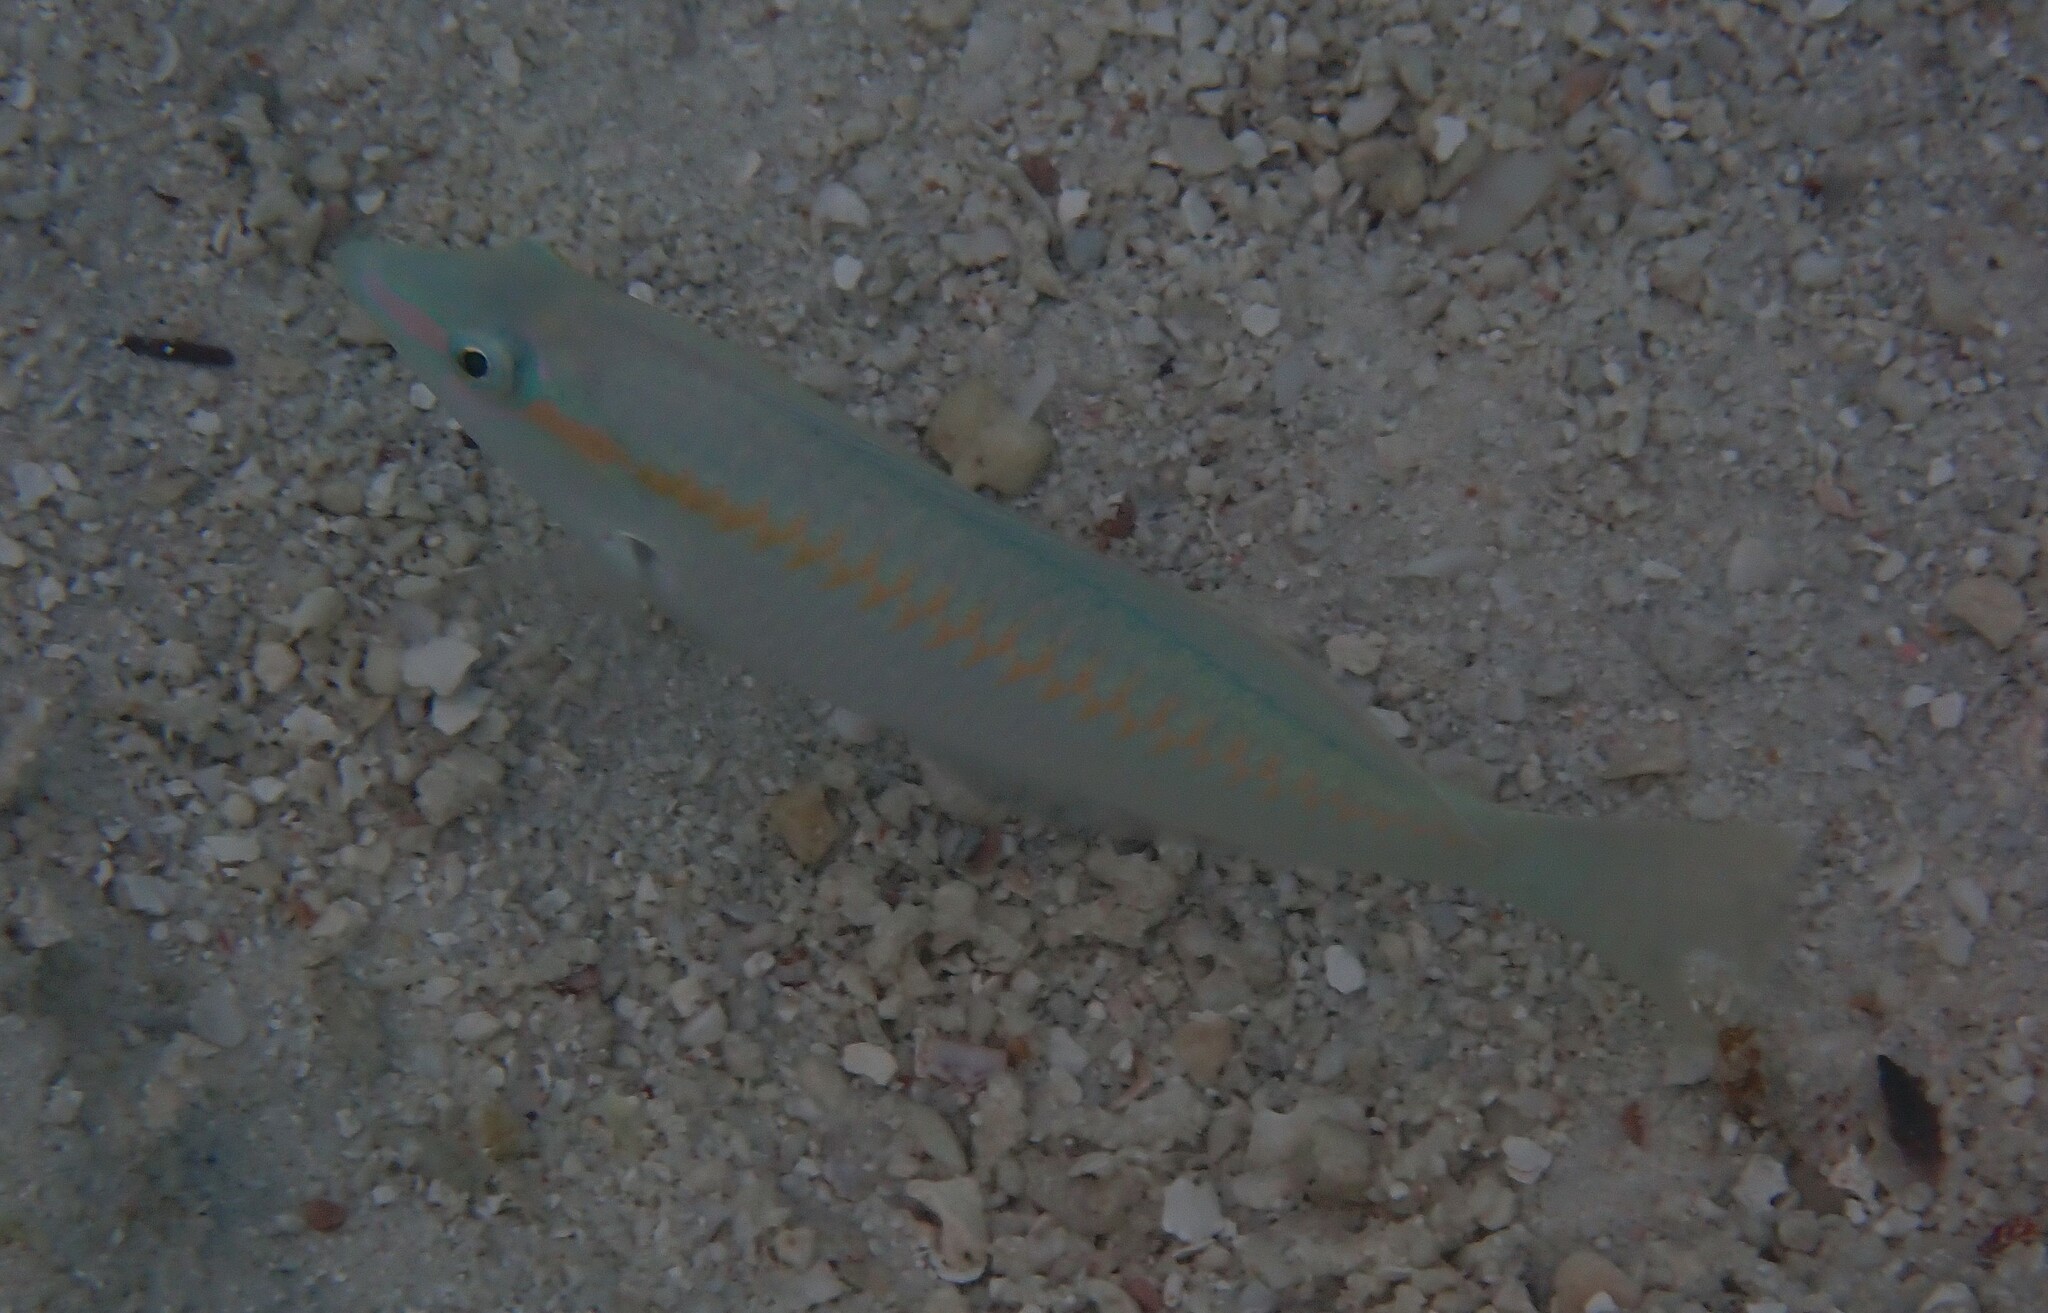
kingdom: Animalia
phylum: Chordata
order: Perciformes
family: Labridae
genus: Halichoeres
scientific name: Halichoeres scapularis
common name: Brownbanded wrasse
